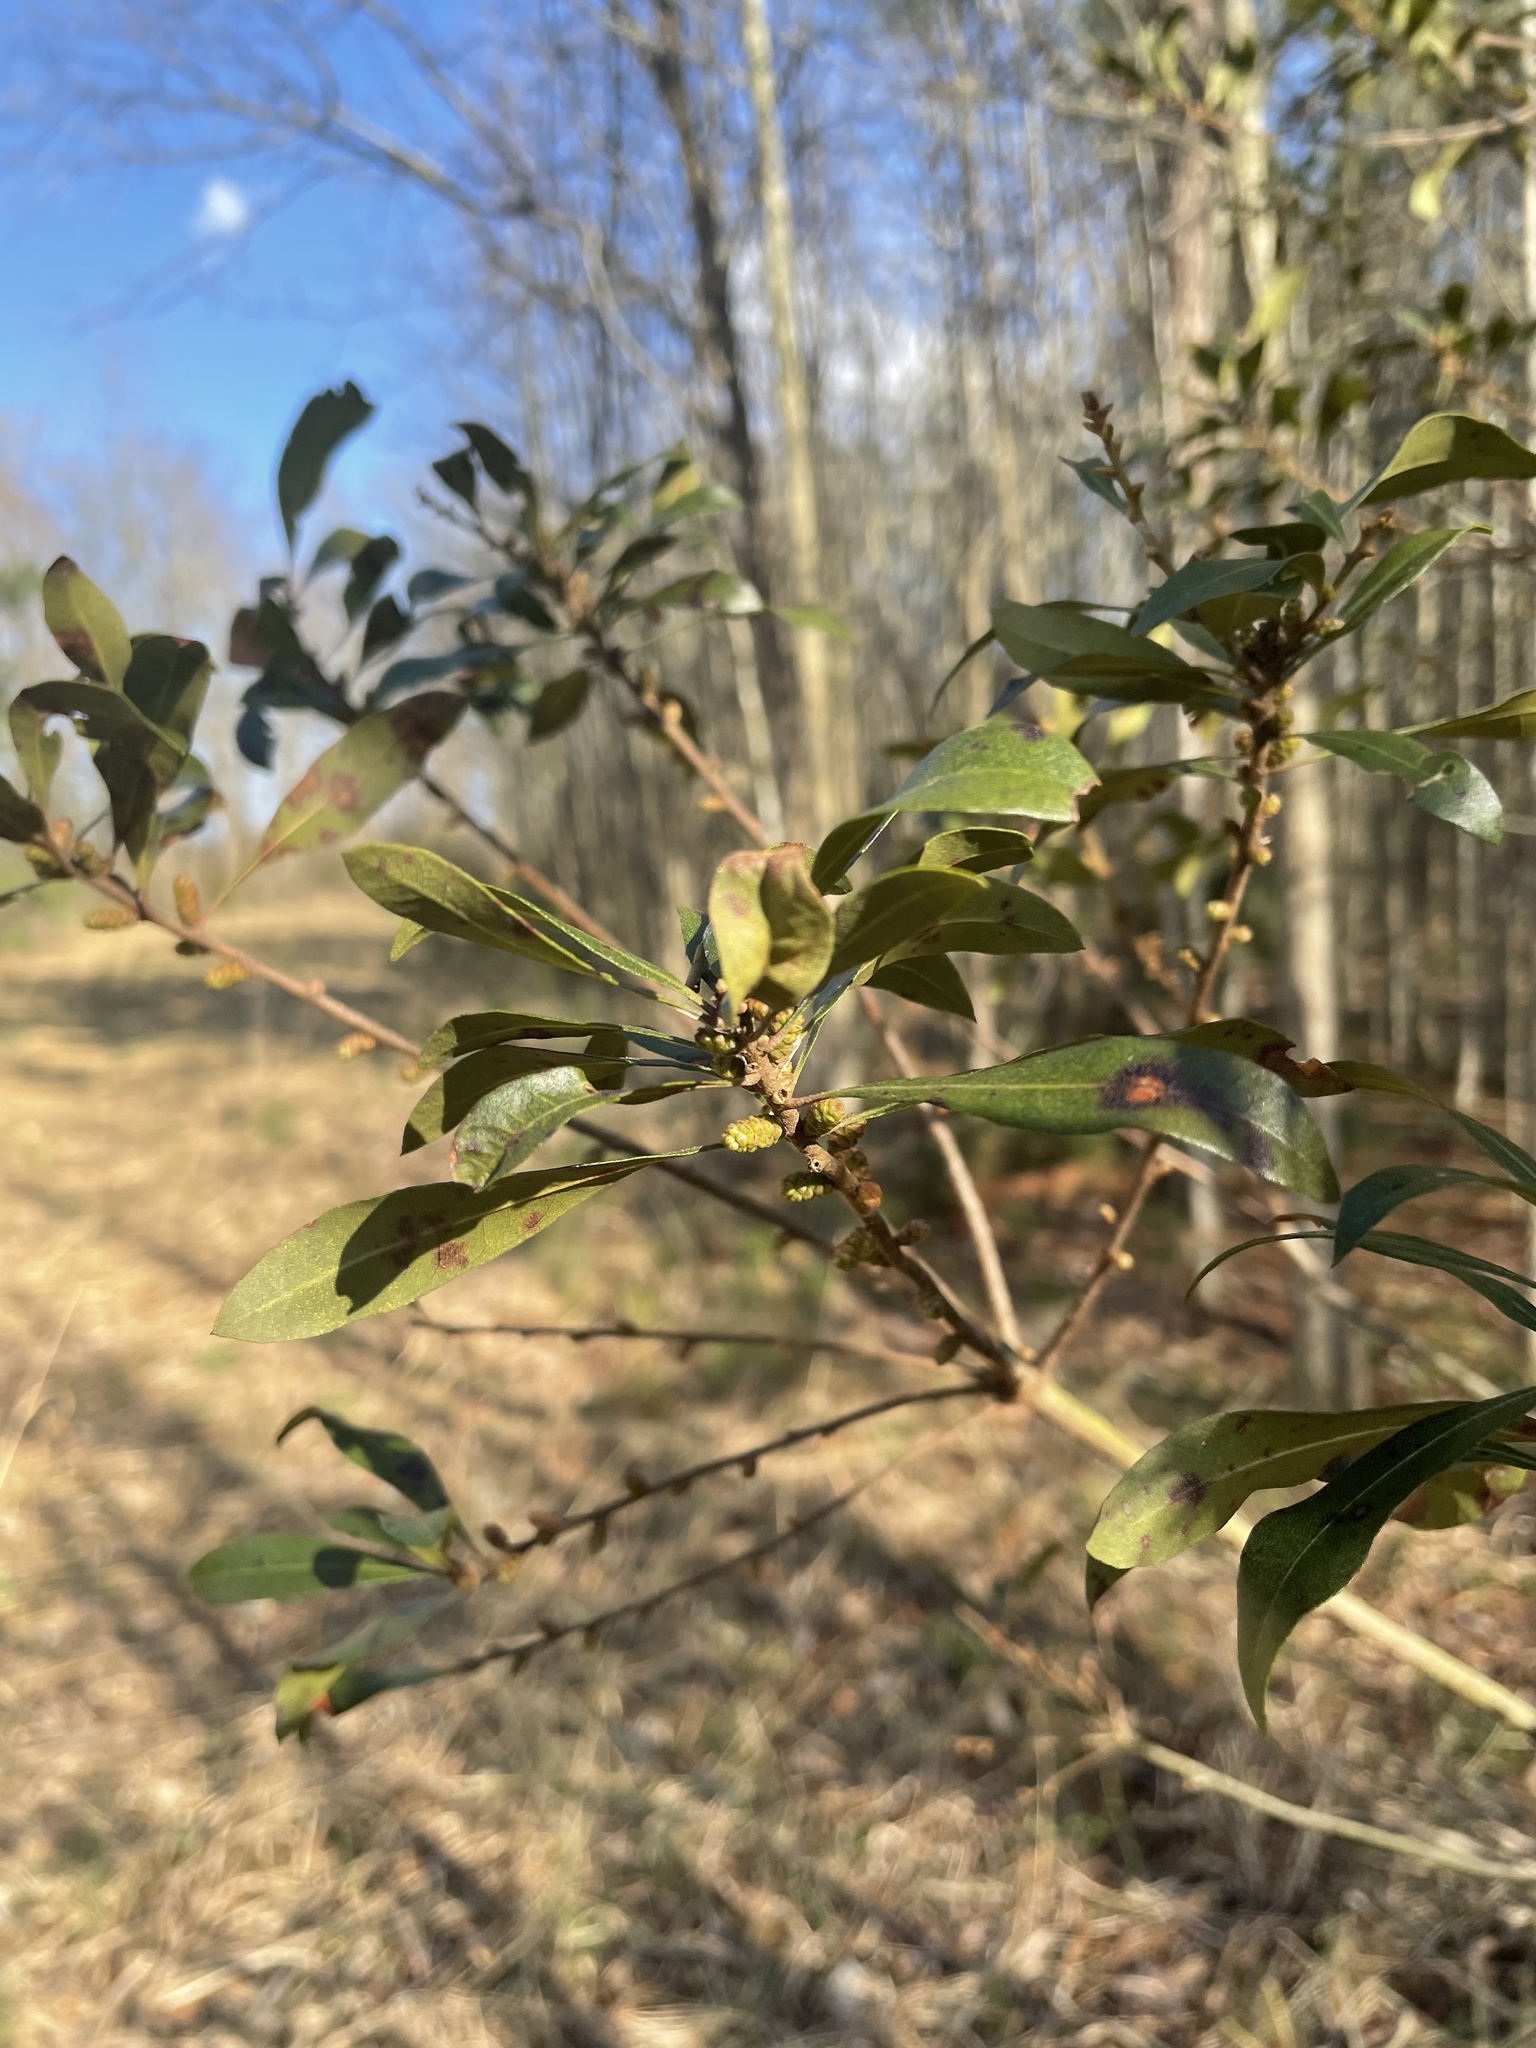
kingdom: Plantae
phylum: Tracheophyta
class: Magnoliopsida
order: Fagales
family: Myricaceae
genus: Morella
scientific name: Morella cerifera
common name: Wax myrtle
